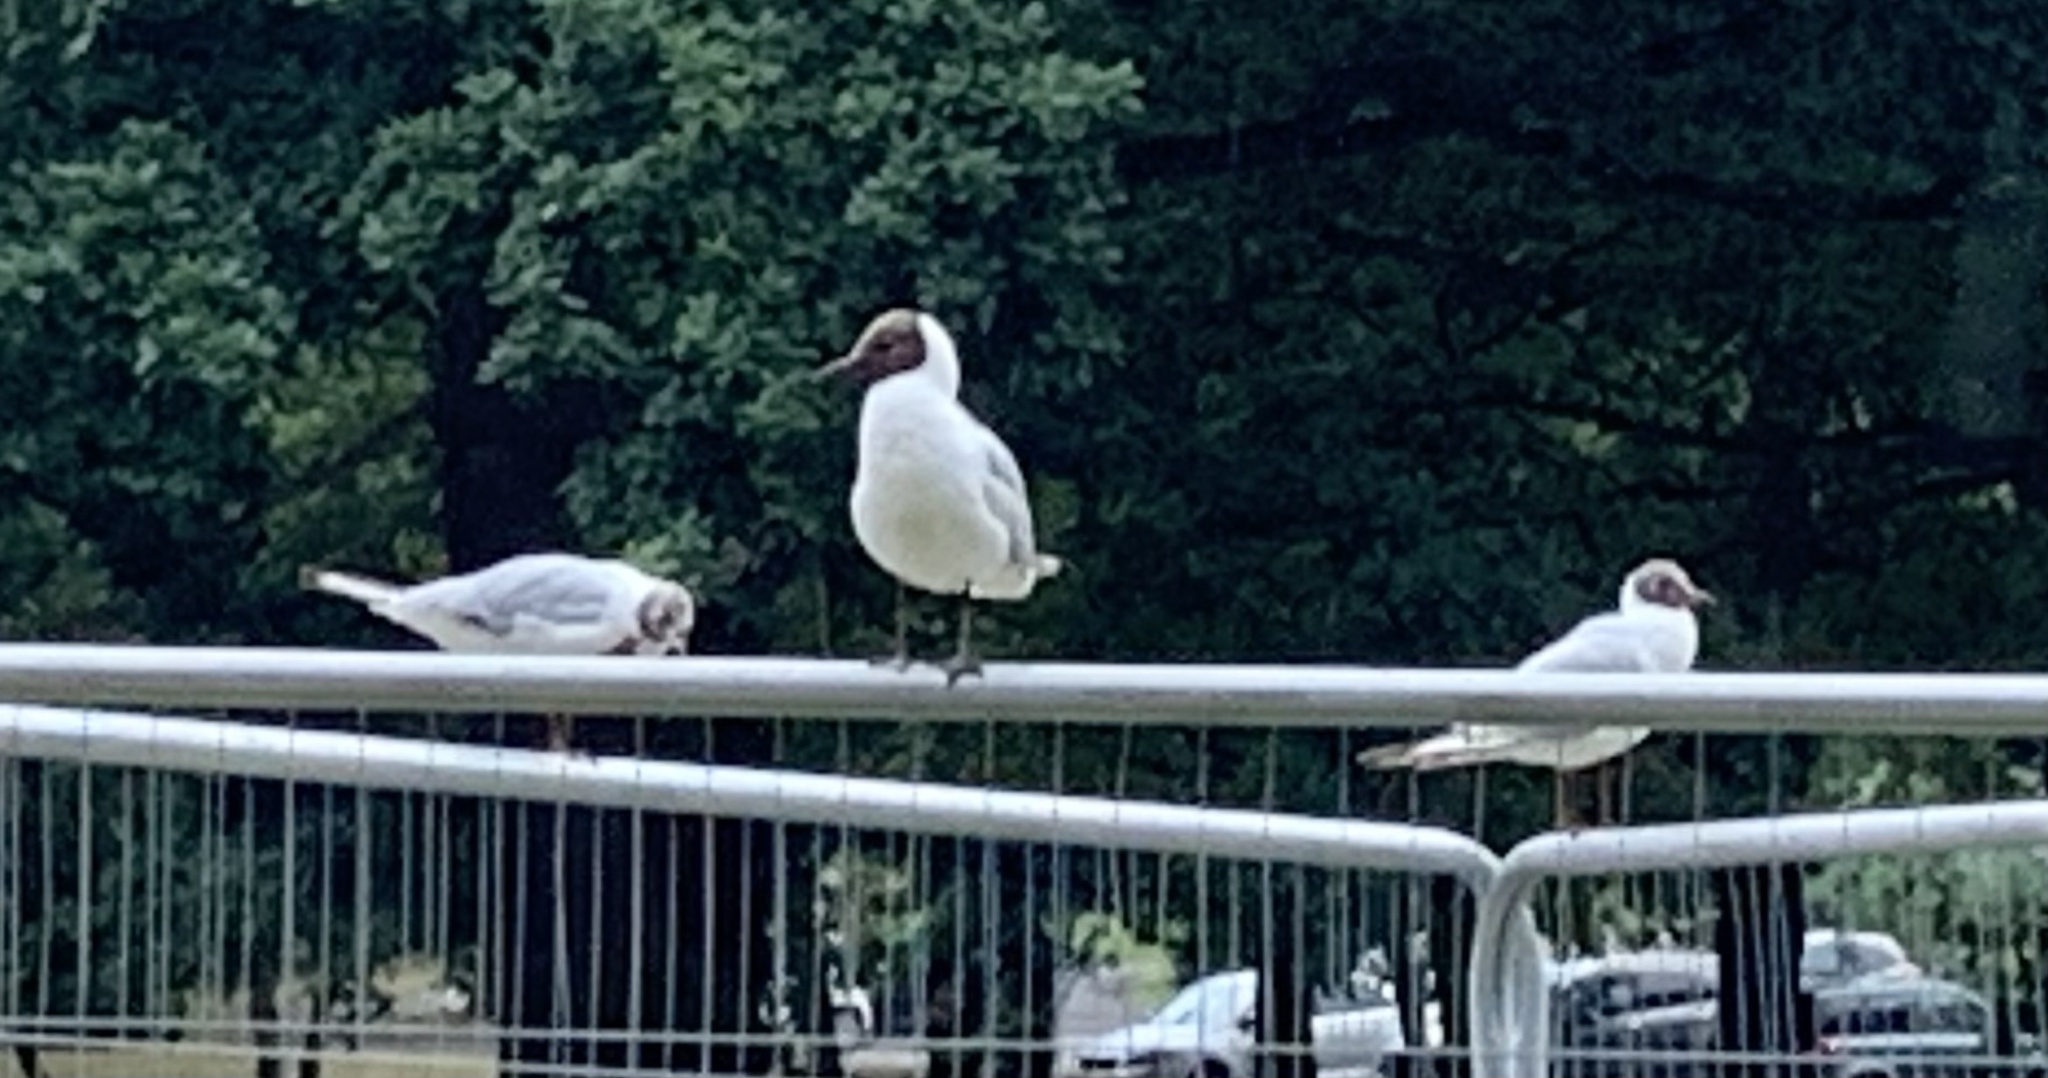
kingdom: Animalia
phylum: Chordata
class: Aves
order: Charadriiformes
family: Laridae
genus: Chroicocephalus
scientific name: Chroicocephalus ridibundus
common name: Black-headed gull
